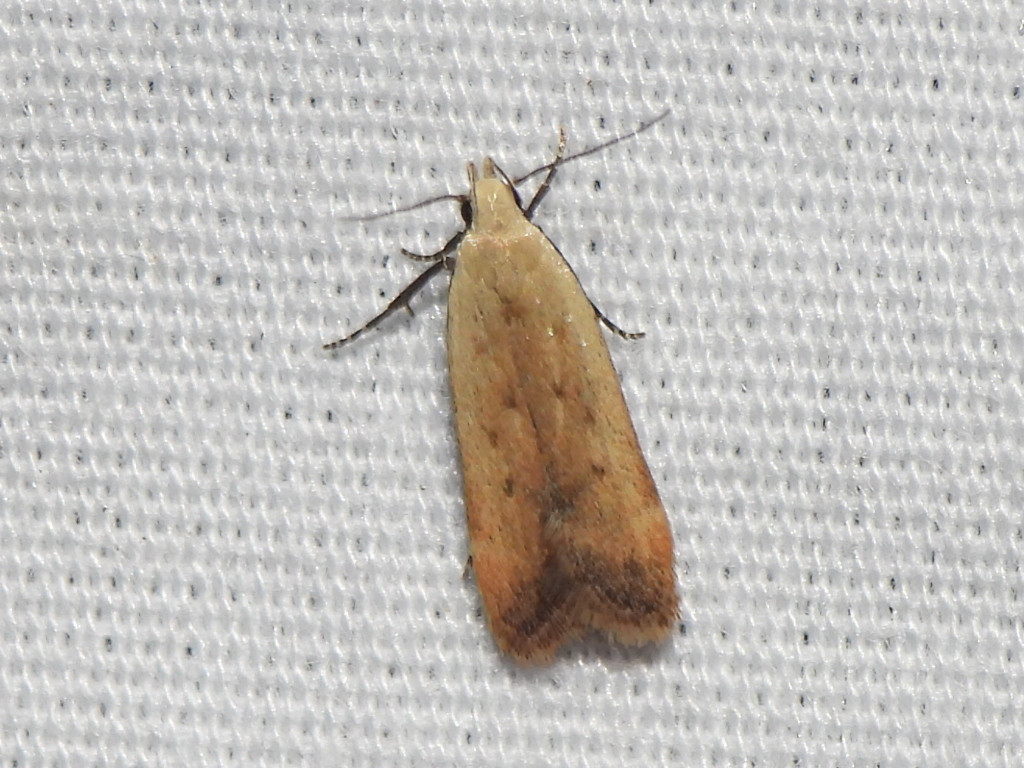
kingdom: Animalia
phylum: Arthropoda
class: Insecta
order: Lepidoptera
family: Gelechiidae
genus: Anacampsis
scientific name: Anacampsis fullonella
